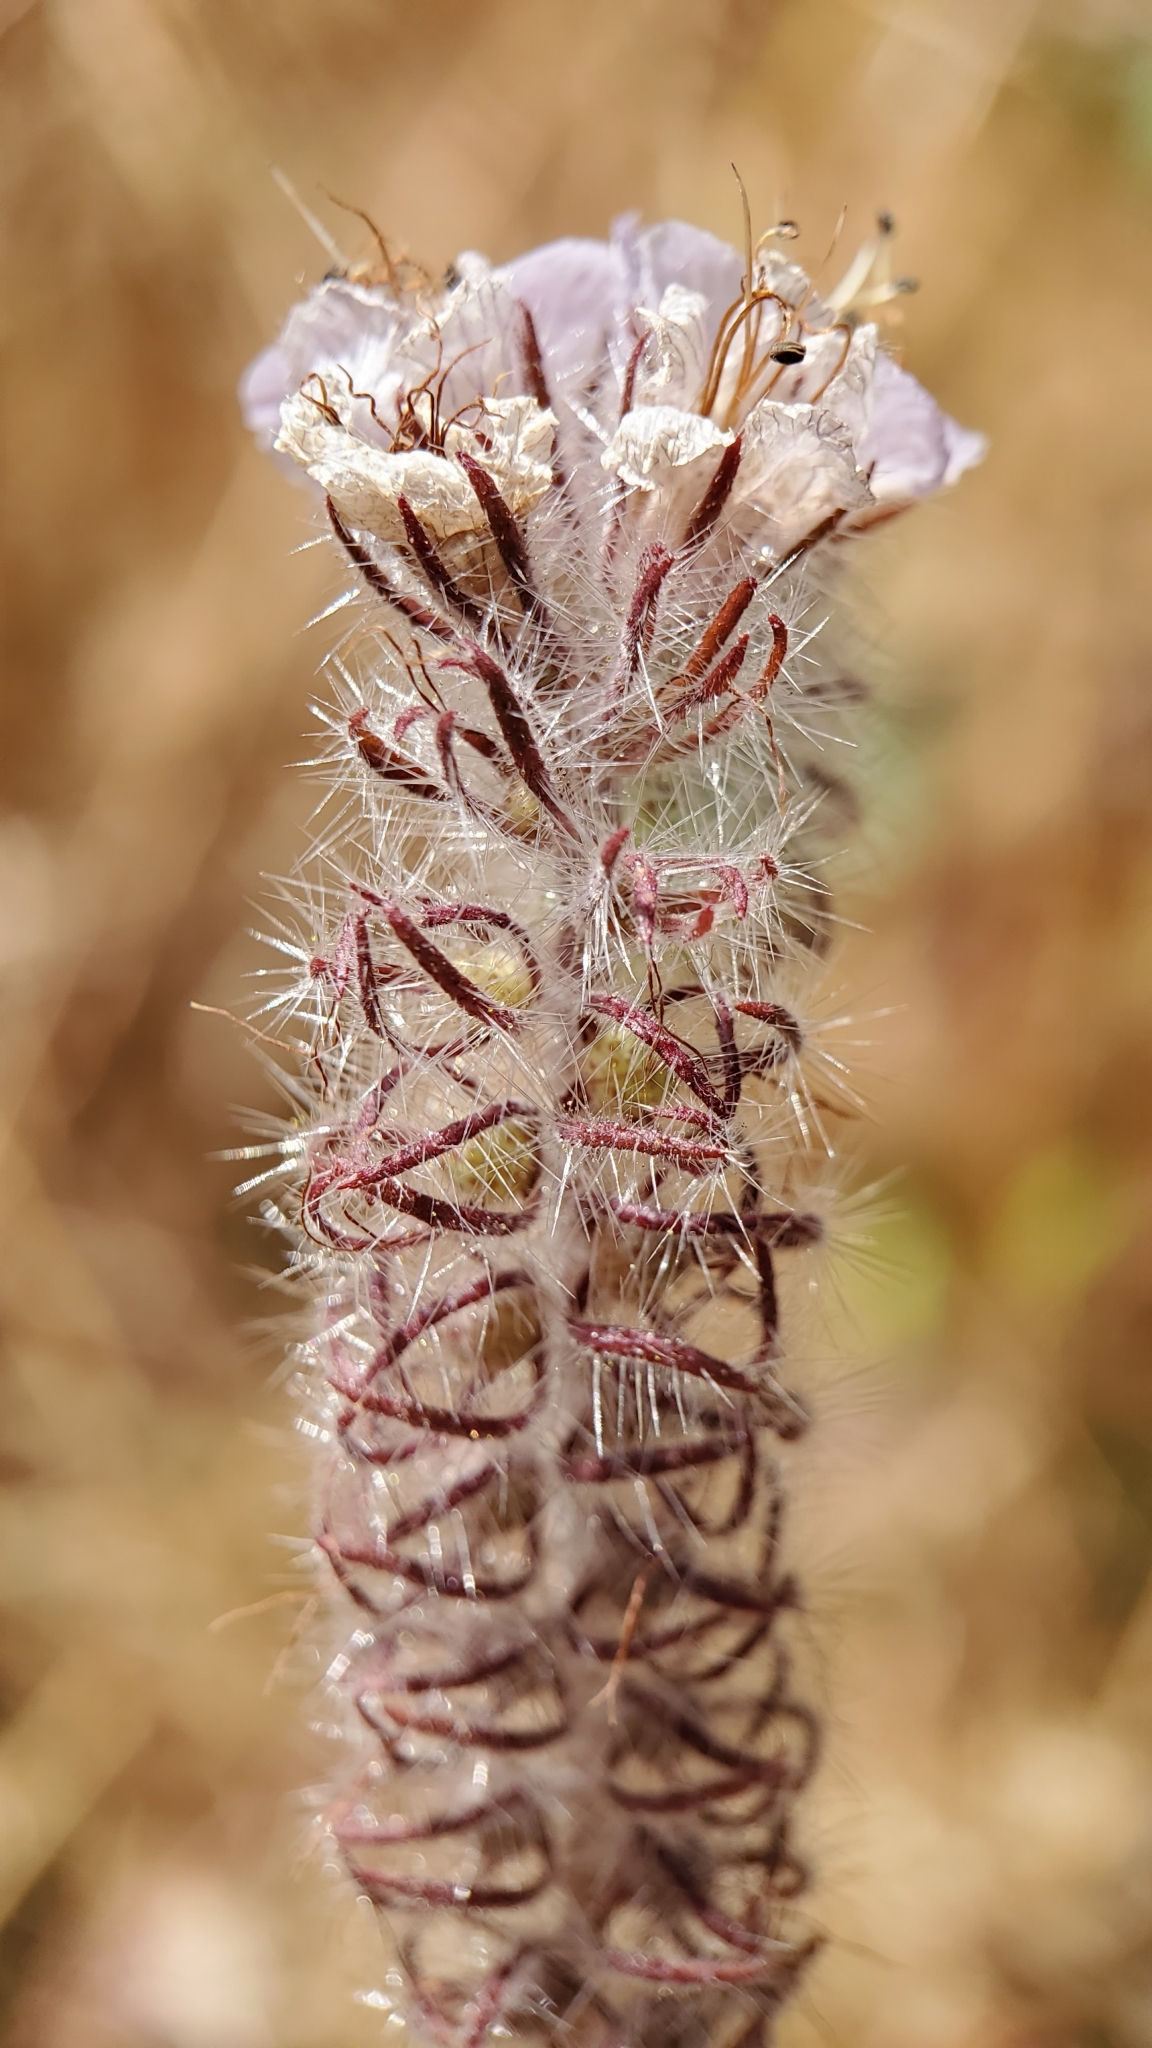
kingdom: Plantae
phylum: Tracheophyta
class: Magnoliopsida
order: Boraginales
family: Hydrophyllaceae
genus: Phacelia
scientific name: Phacelia cicutaria
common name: Caterpillar phacelia
